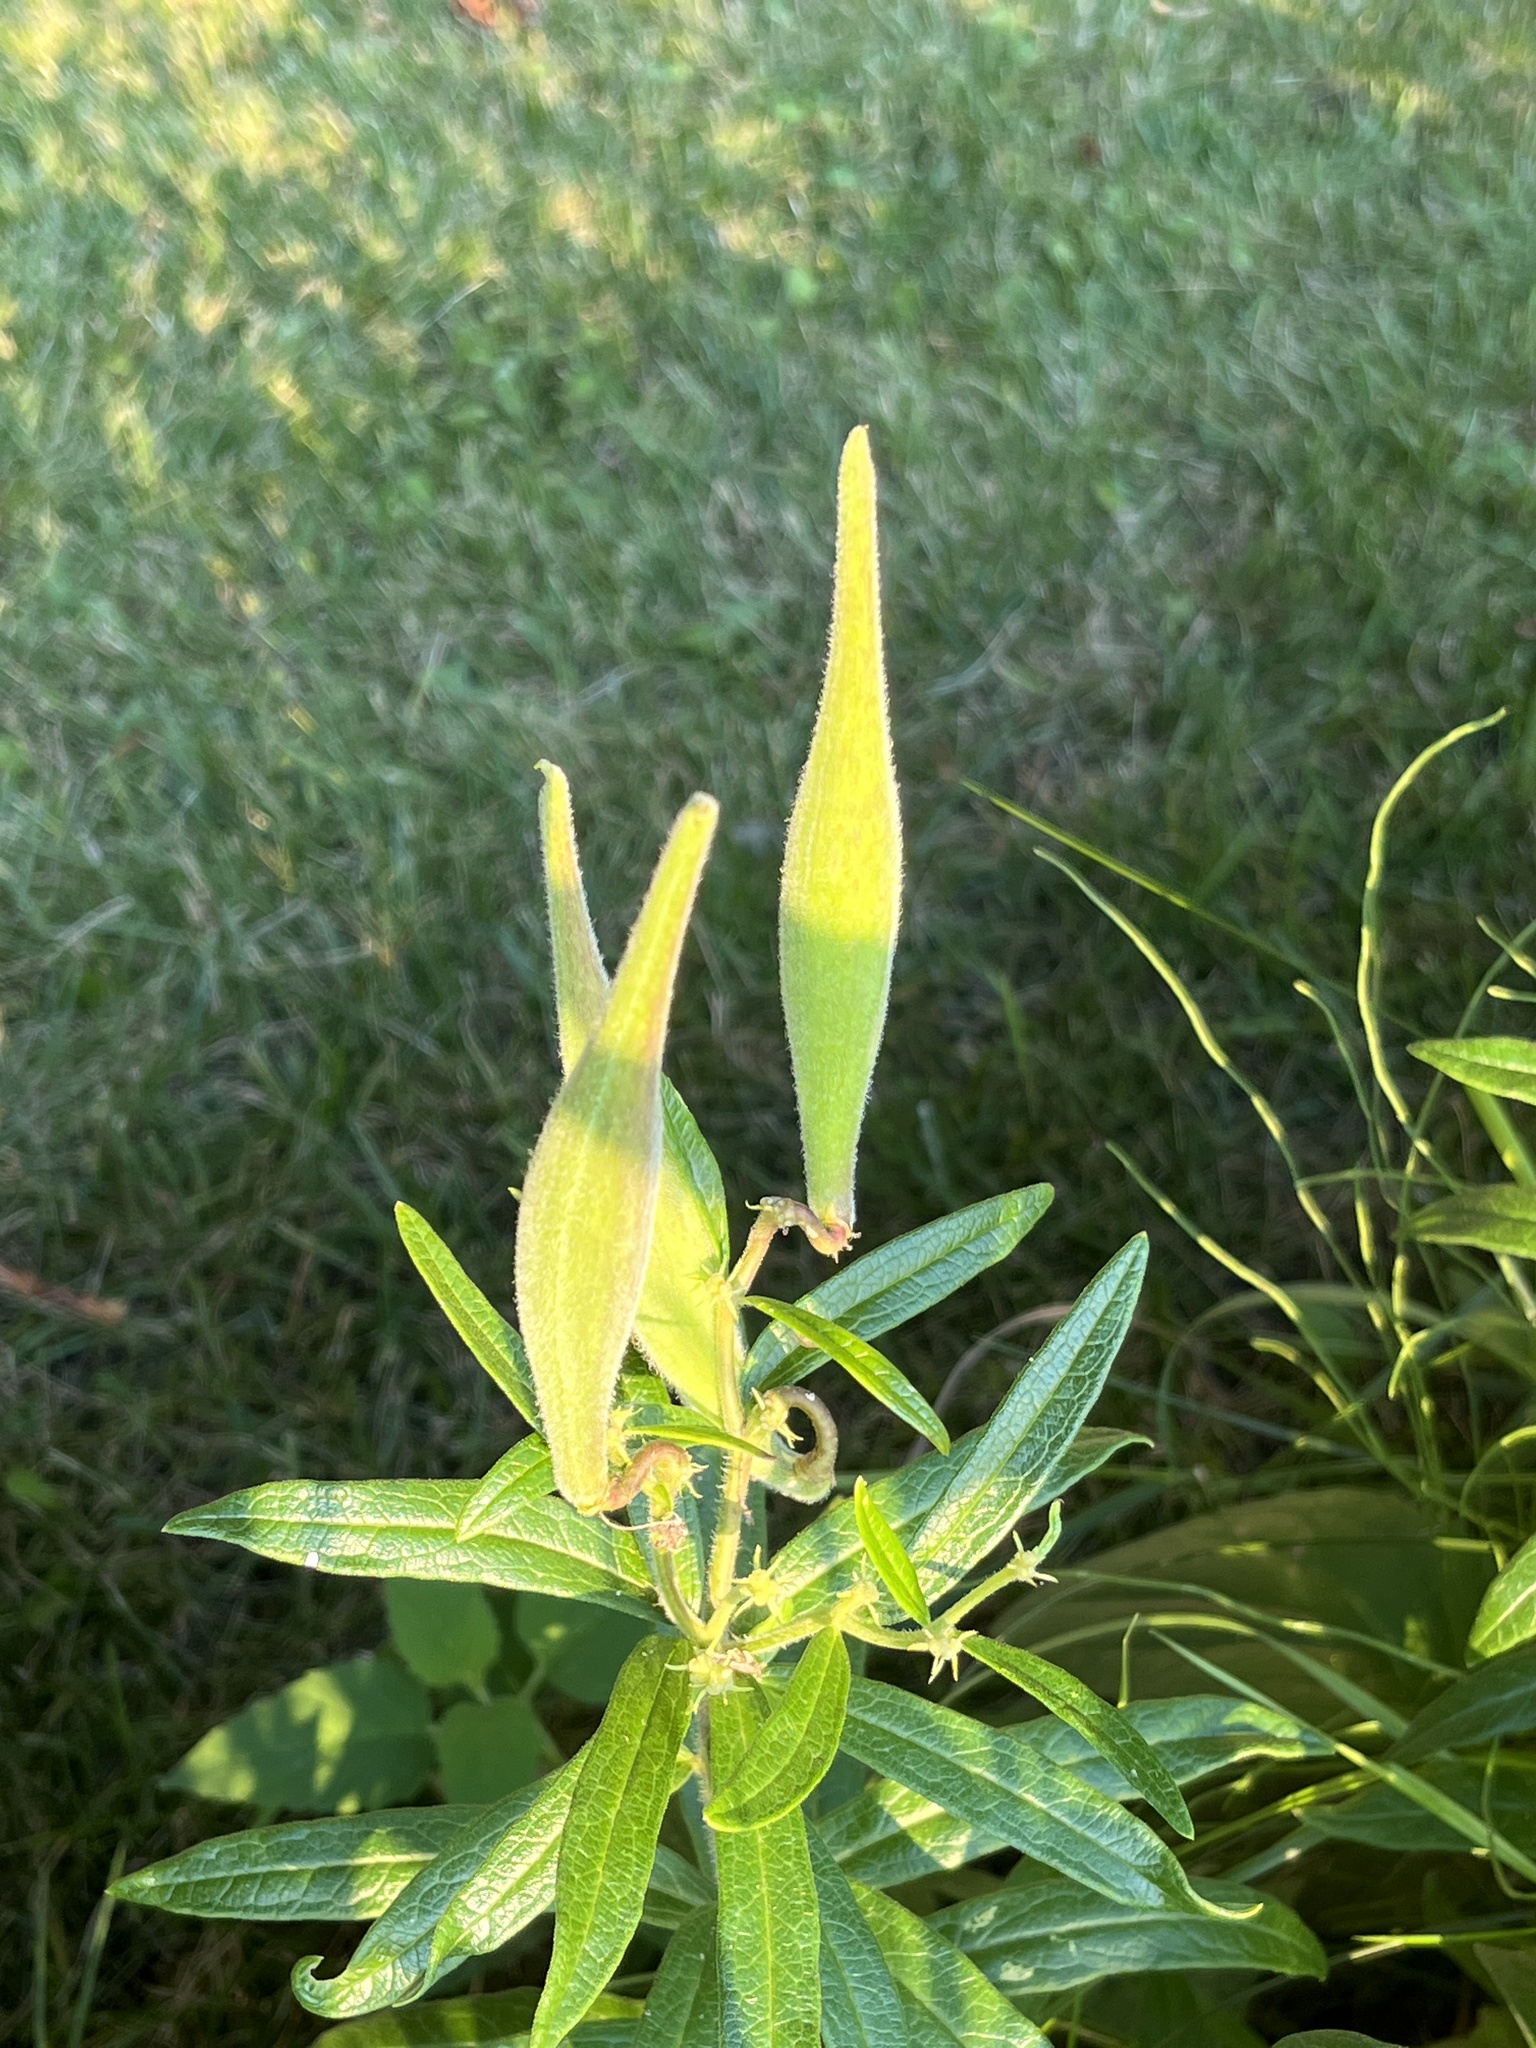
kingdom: Plantae
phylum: Tracheophyta
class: Magnoliopsida
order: Gentianales
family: Apocynaceae
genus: Asclepias
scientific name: Asclepias tuberosa
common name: Butterfly milkweed
